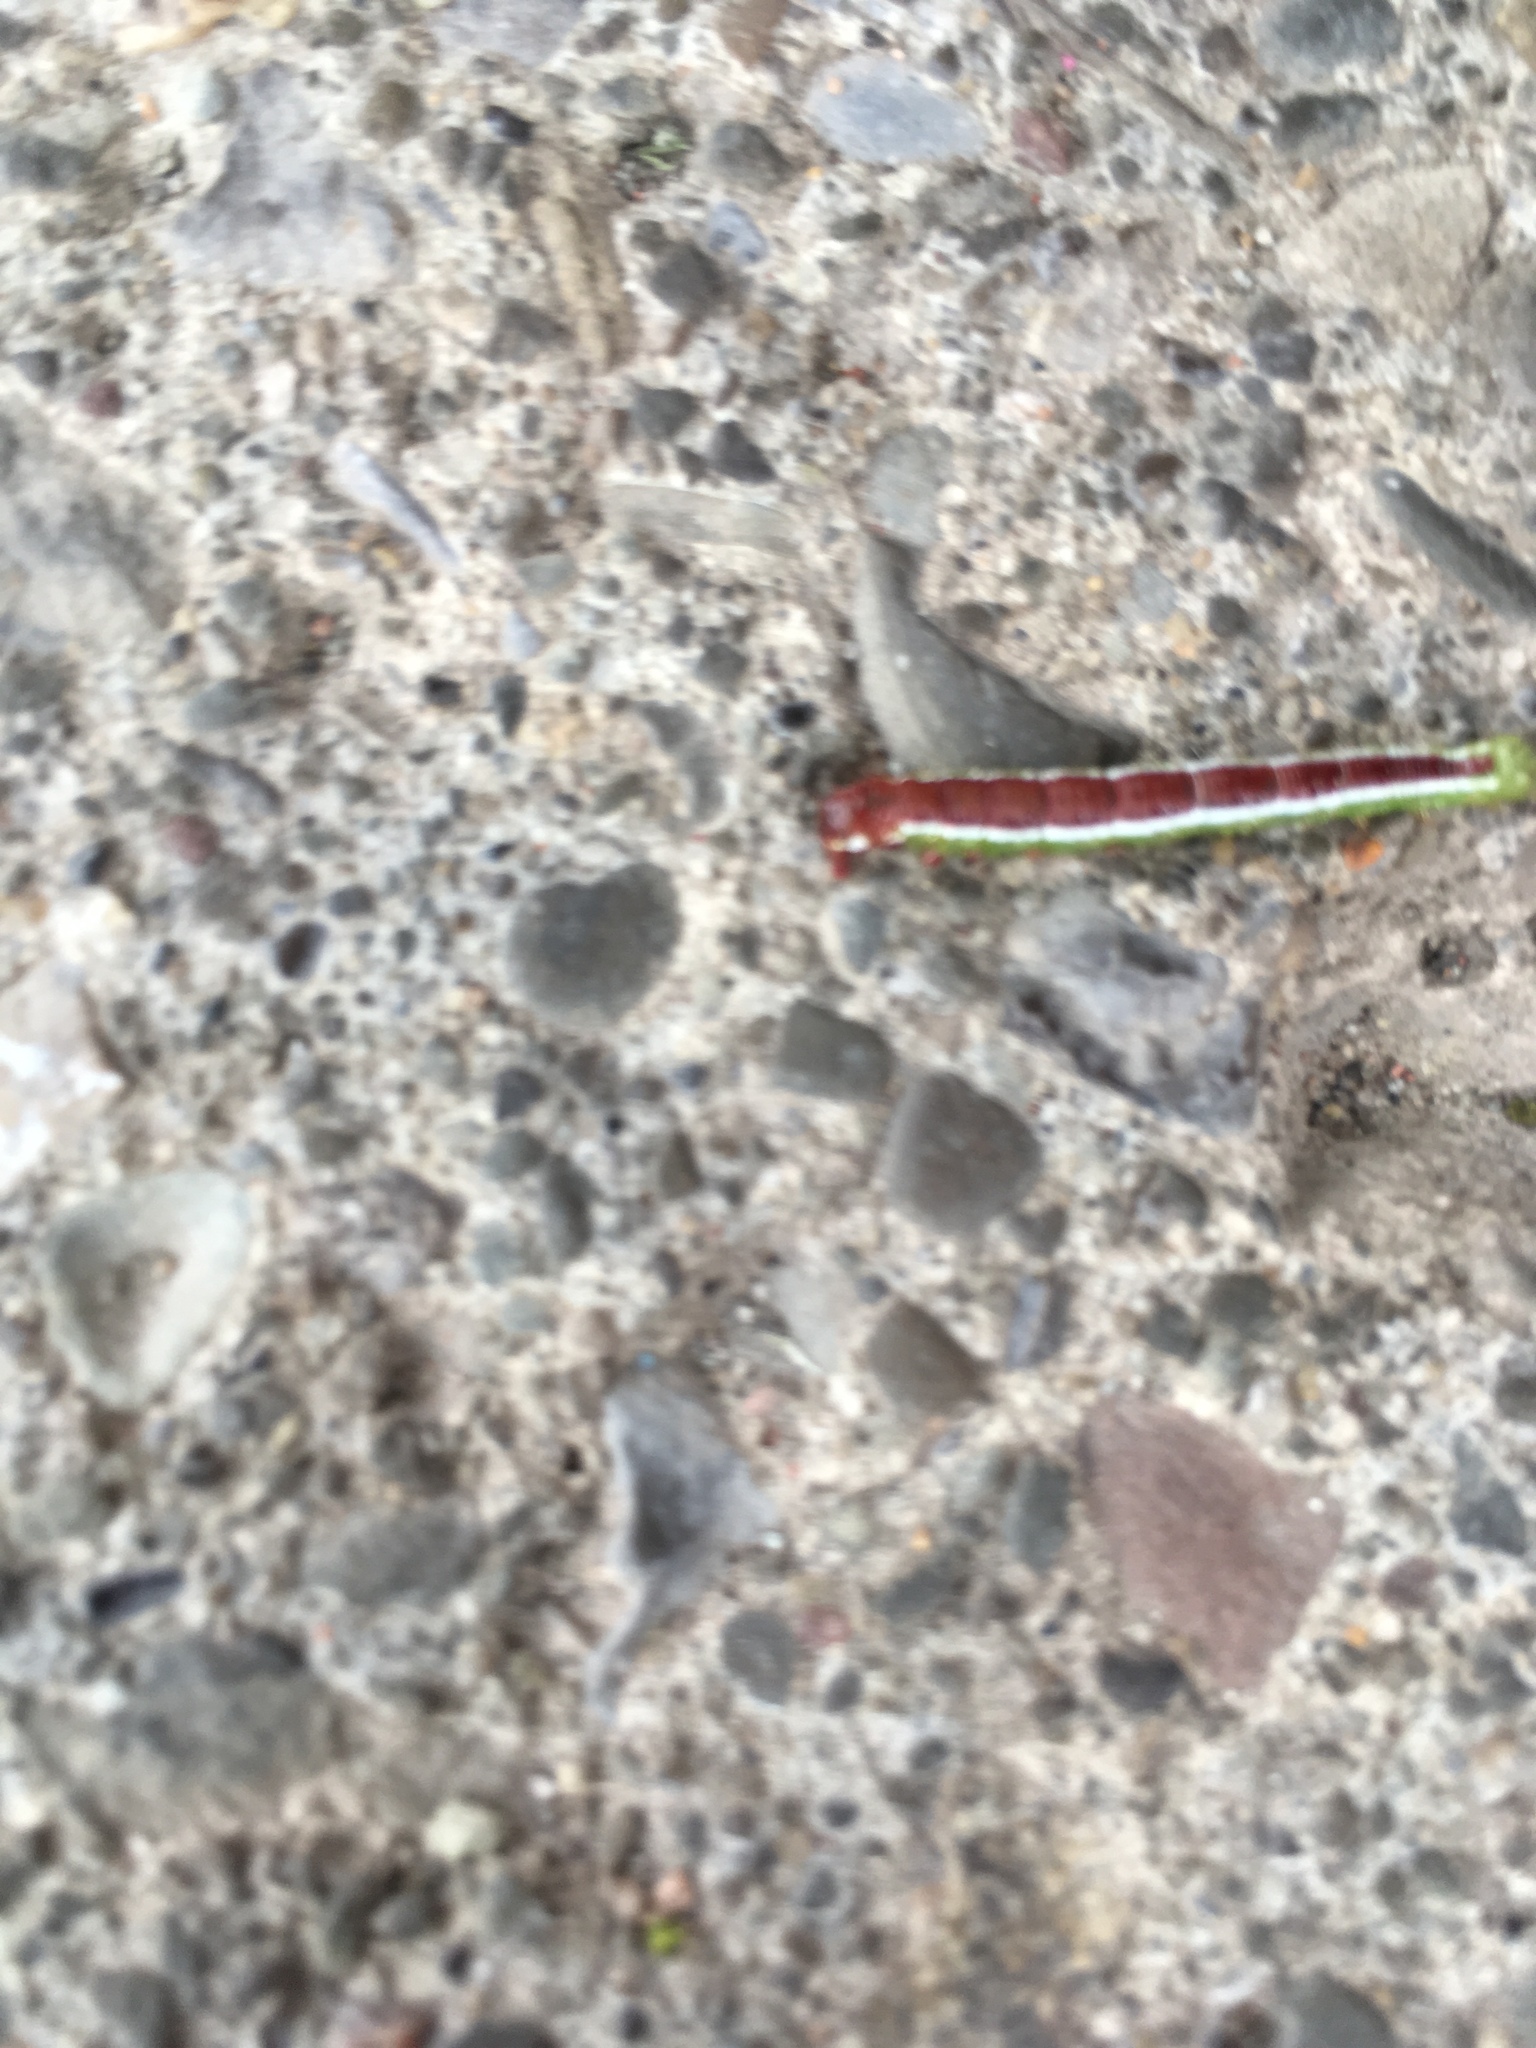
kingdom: Animalia
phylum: Arthropoda
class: Insecta
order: Lepidoptera
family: Noctuidae
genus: Cerma
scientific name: Cerma cerintha
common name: Tufted bird-dropping moth
